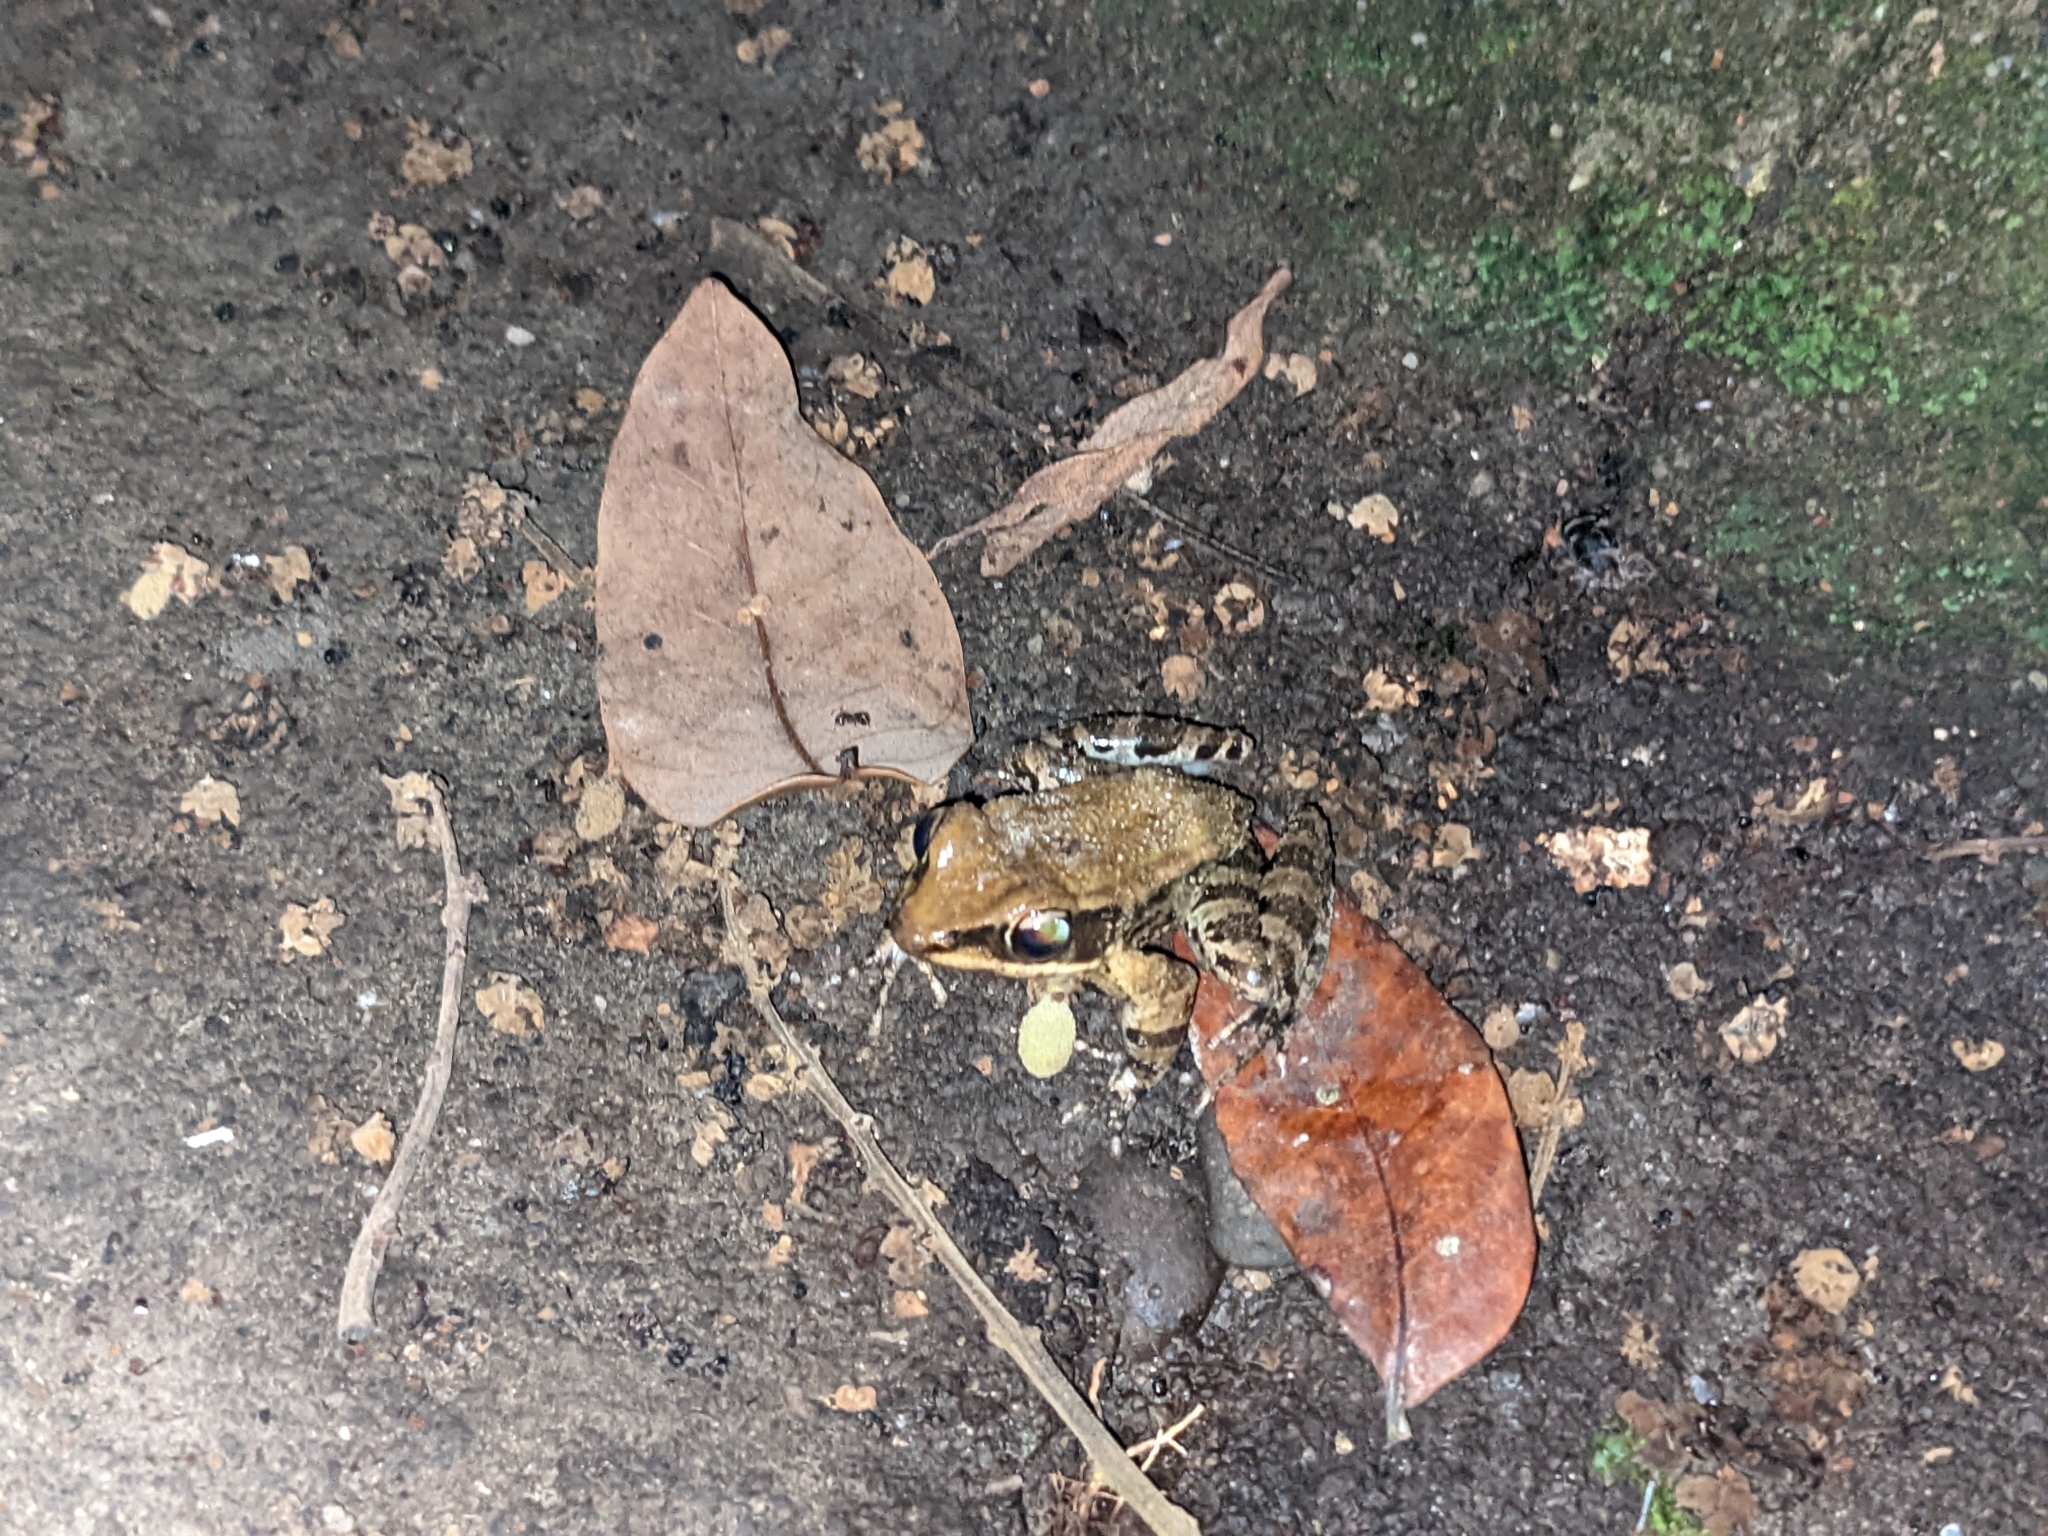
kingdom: Animalia
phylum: Chordata
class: Amphibia
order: Anura
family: Ranidae
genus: Hylarana
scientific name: Hylarana latouchii
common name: Broad-folded frog
